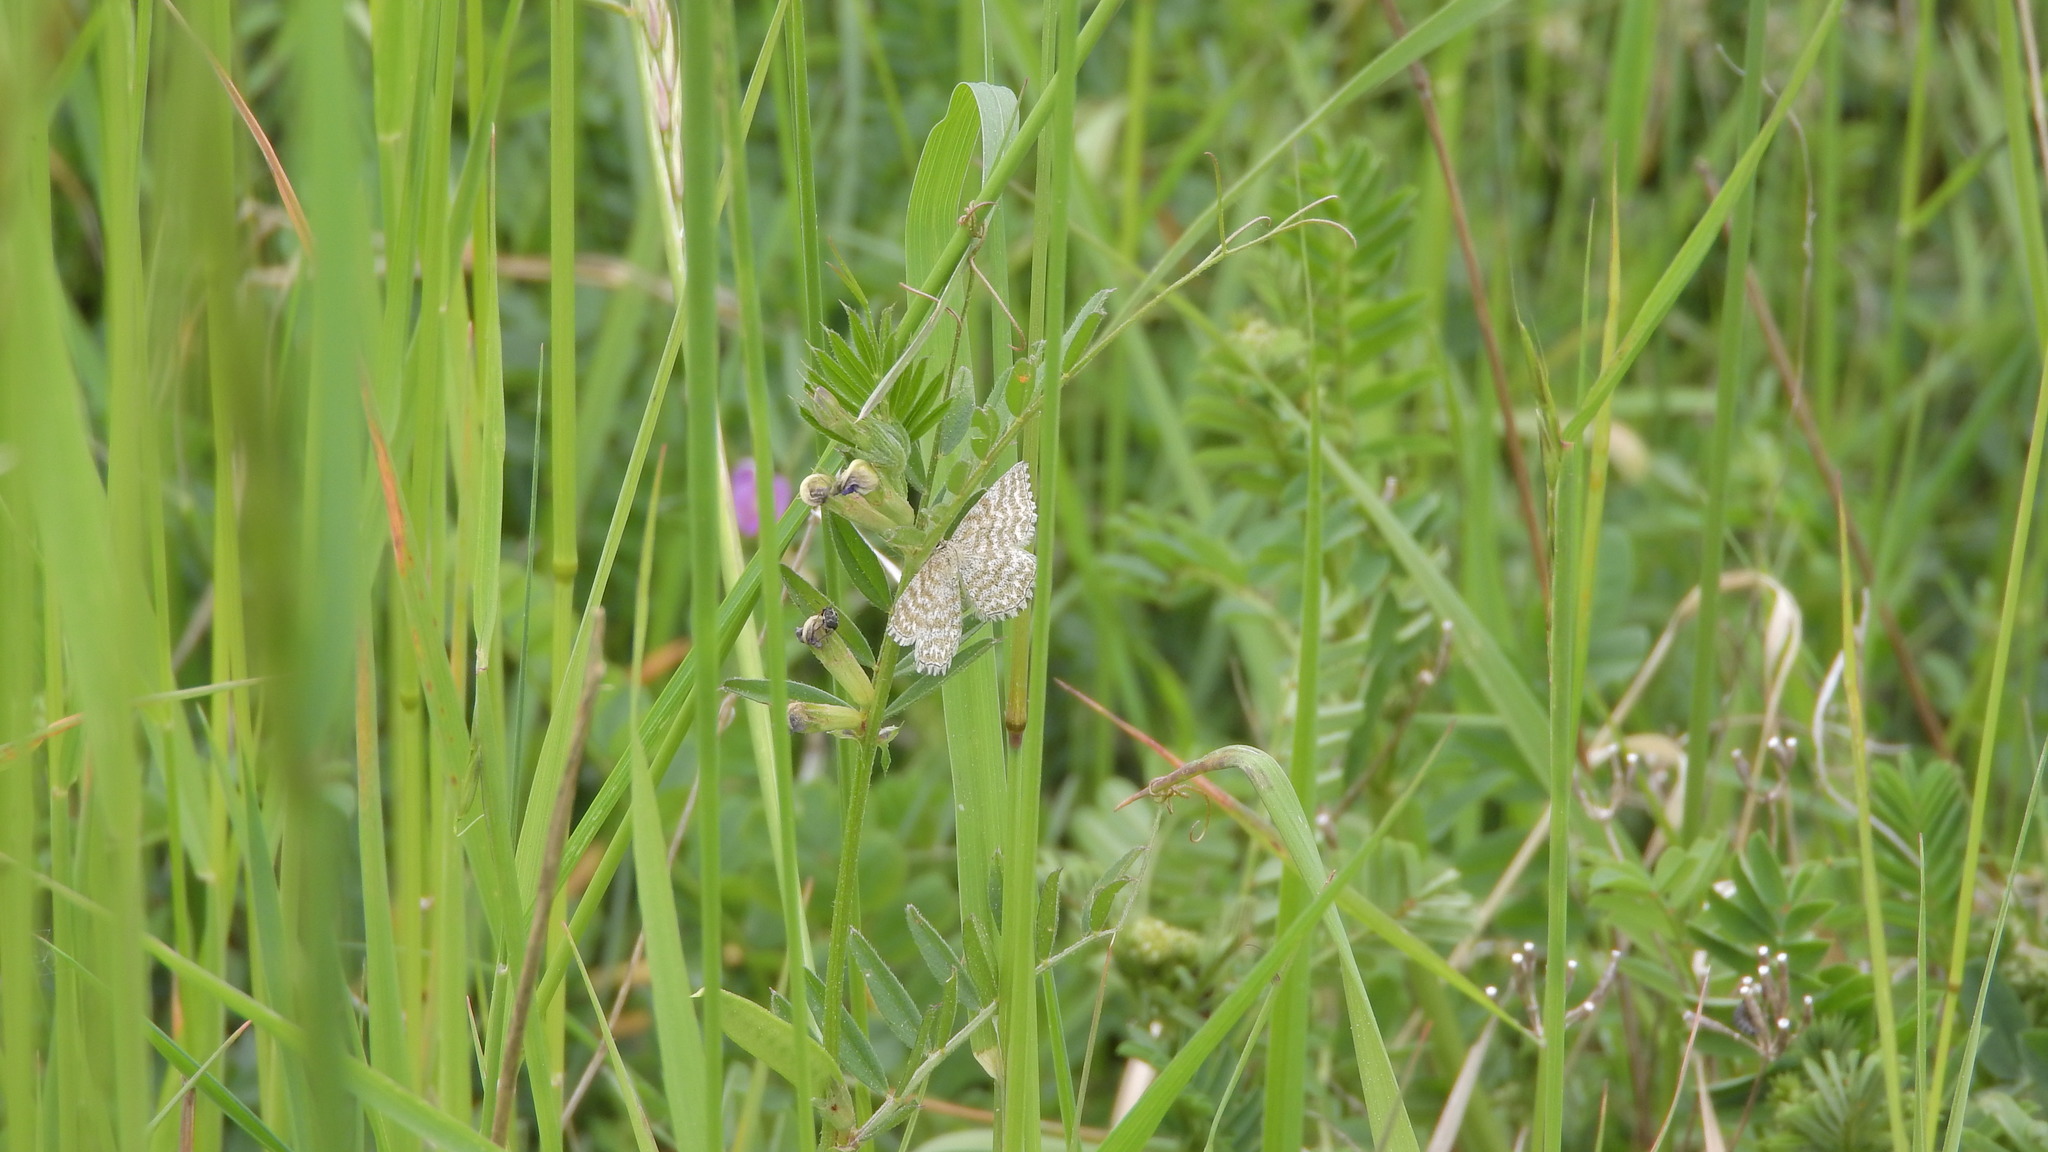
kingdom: Animalia
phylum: Arthropoda
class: Insecta
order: Lepidoptera
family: Geometridae
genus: Scopula
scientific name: Scopula immorata
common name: Lewes wave
